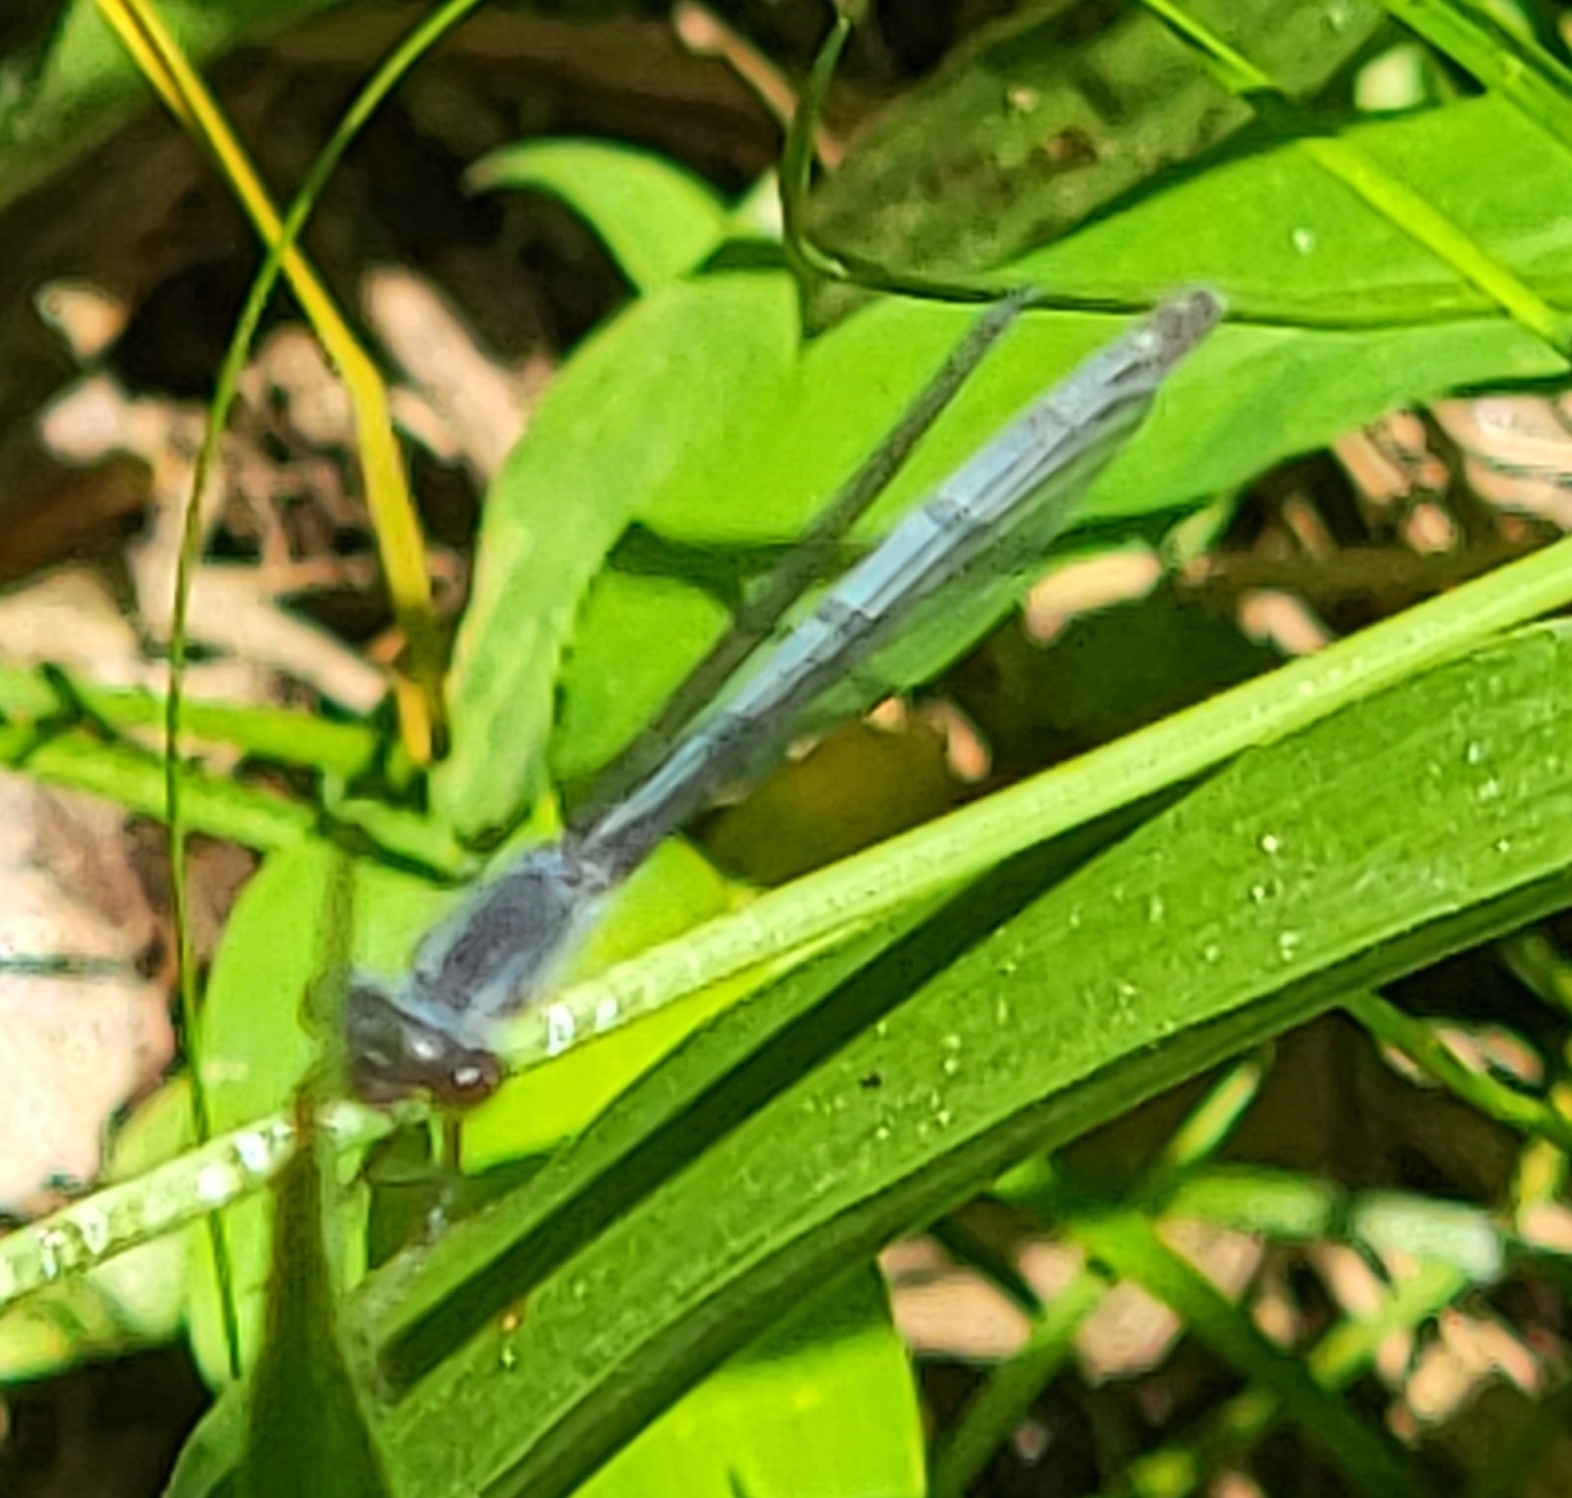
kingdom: Animalia
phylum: Arthropoda
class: Insecta
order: Odonata
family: Coenagrionidae
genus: Ischnura
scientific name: Ischnura posita
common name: Fragile forktail
